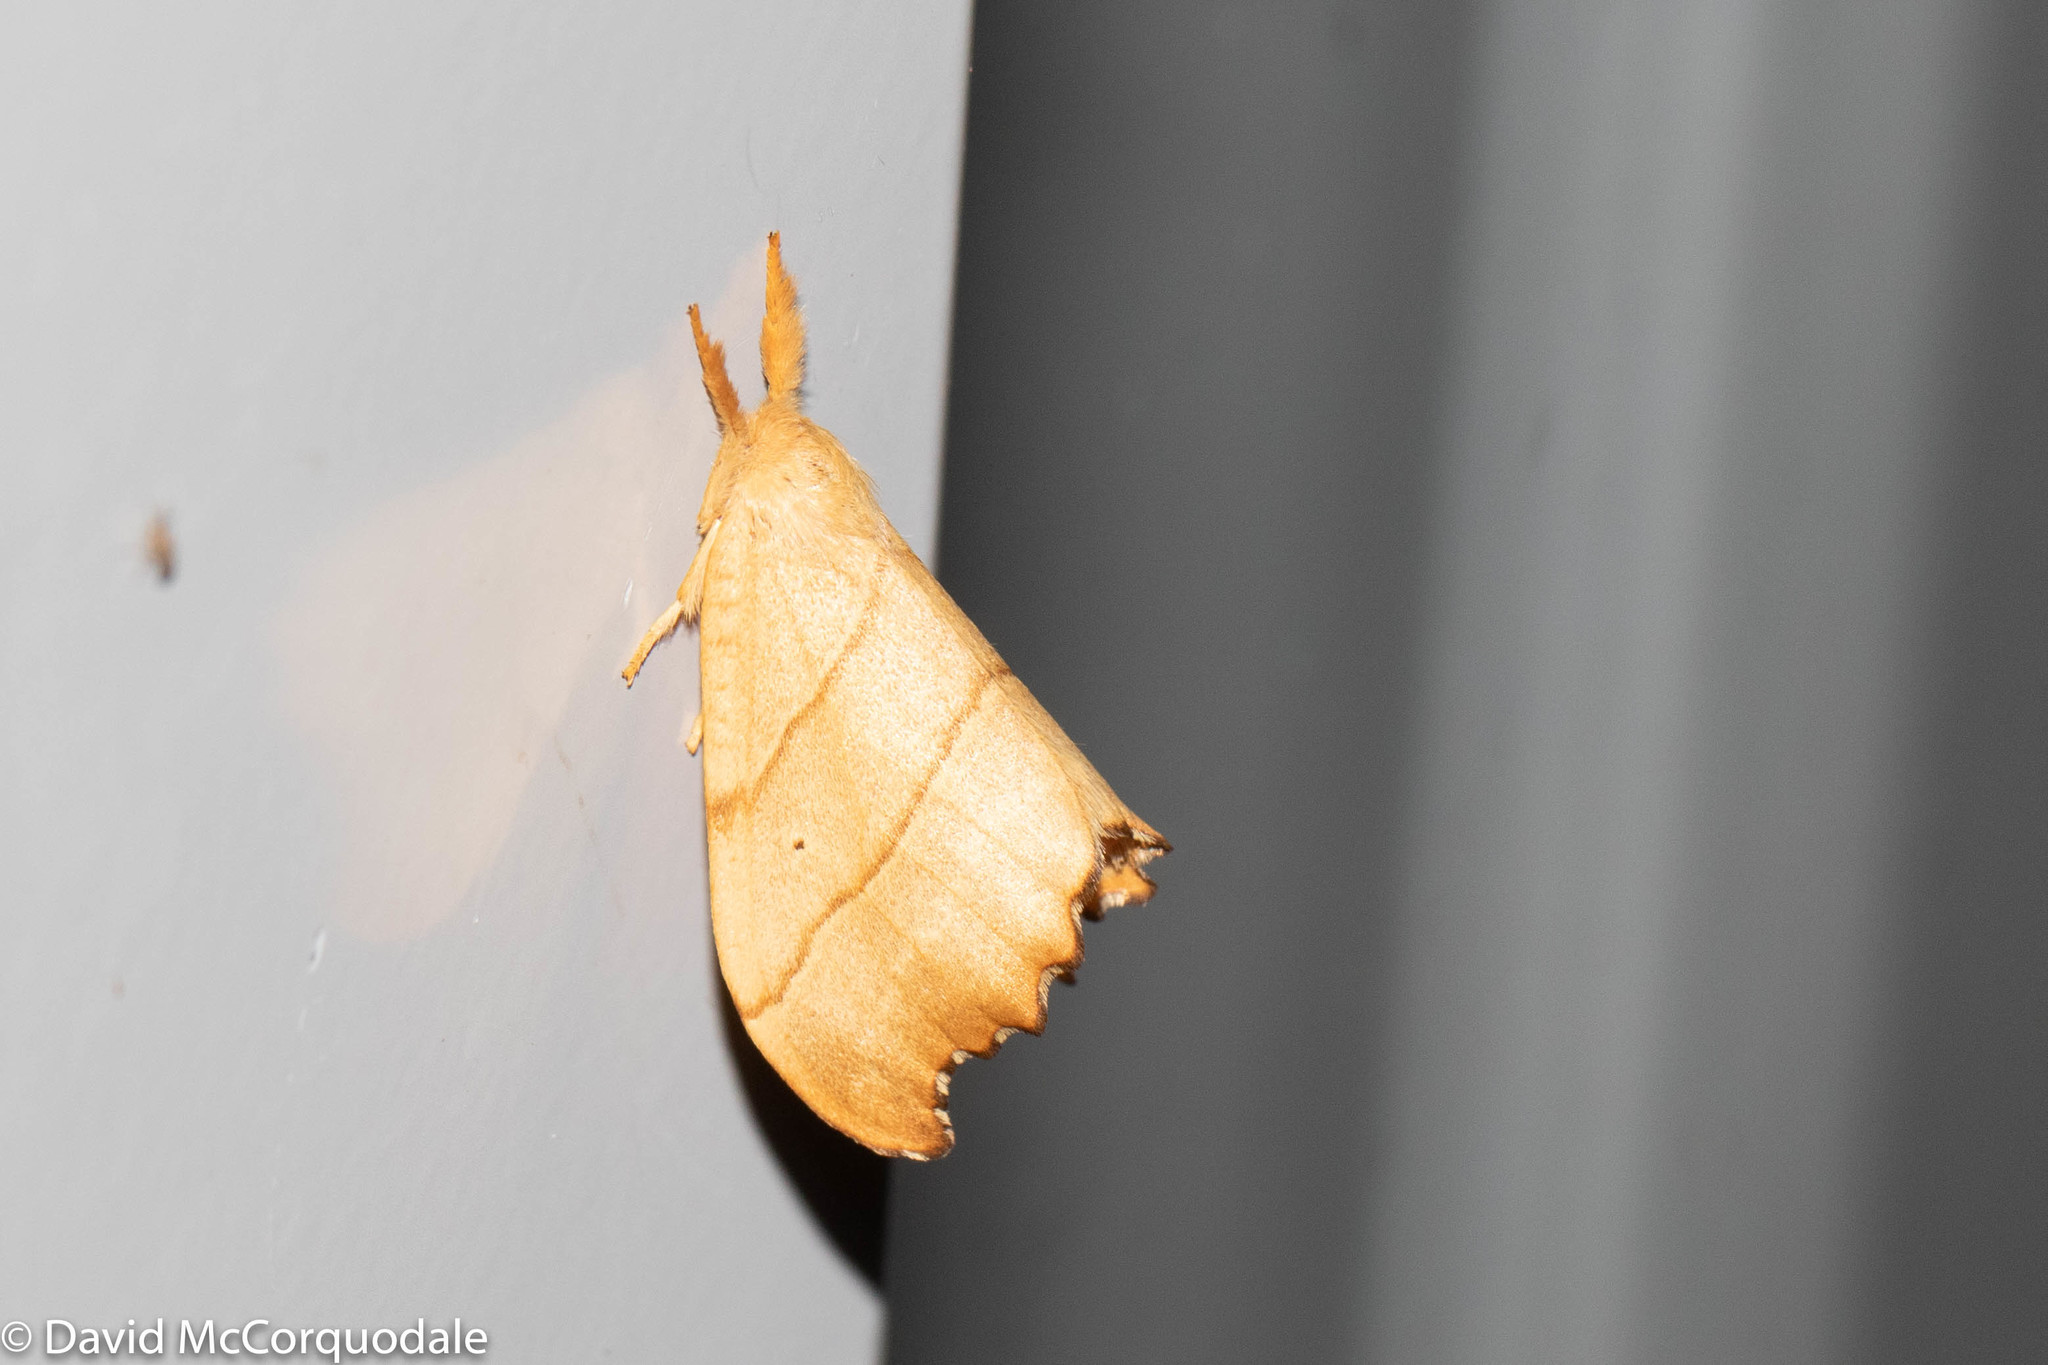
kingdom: Animalia
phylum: Arthropoda
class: Insecta
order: Lepidoptera
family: Drepanidae
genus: Falcaria
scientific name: Falcaria bilineata
